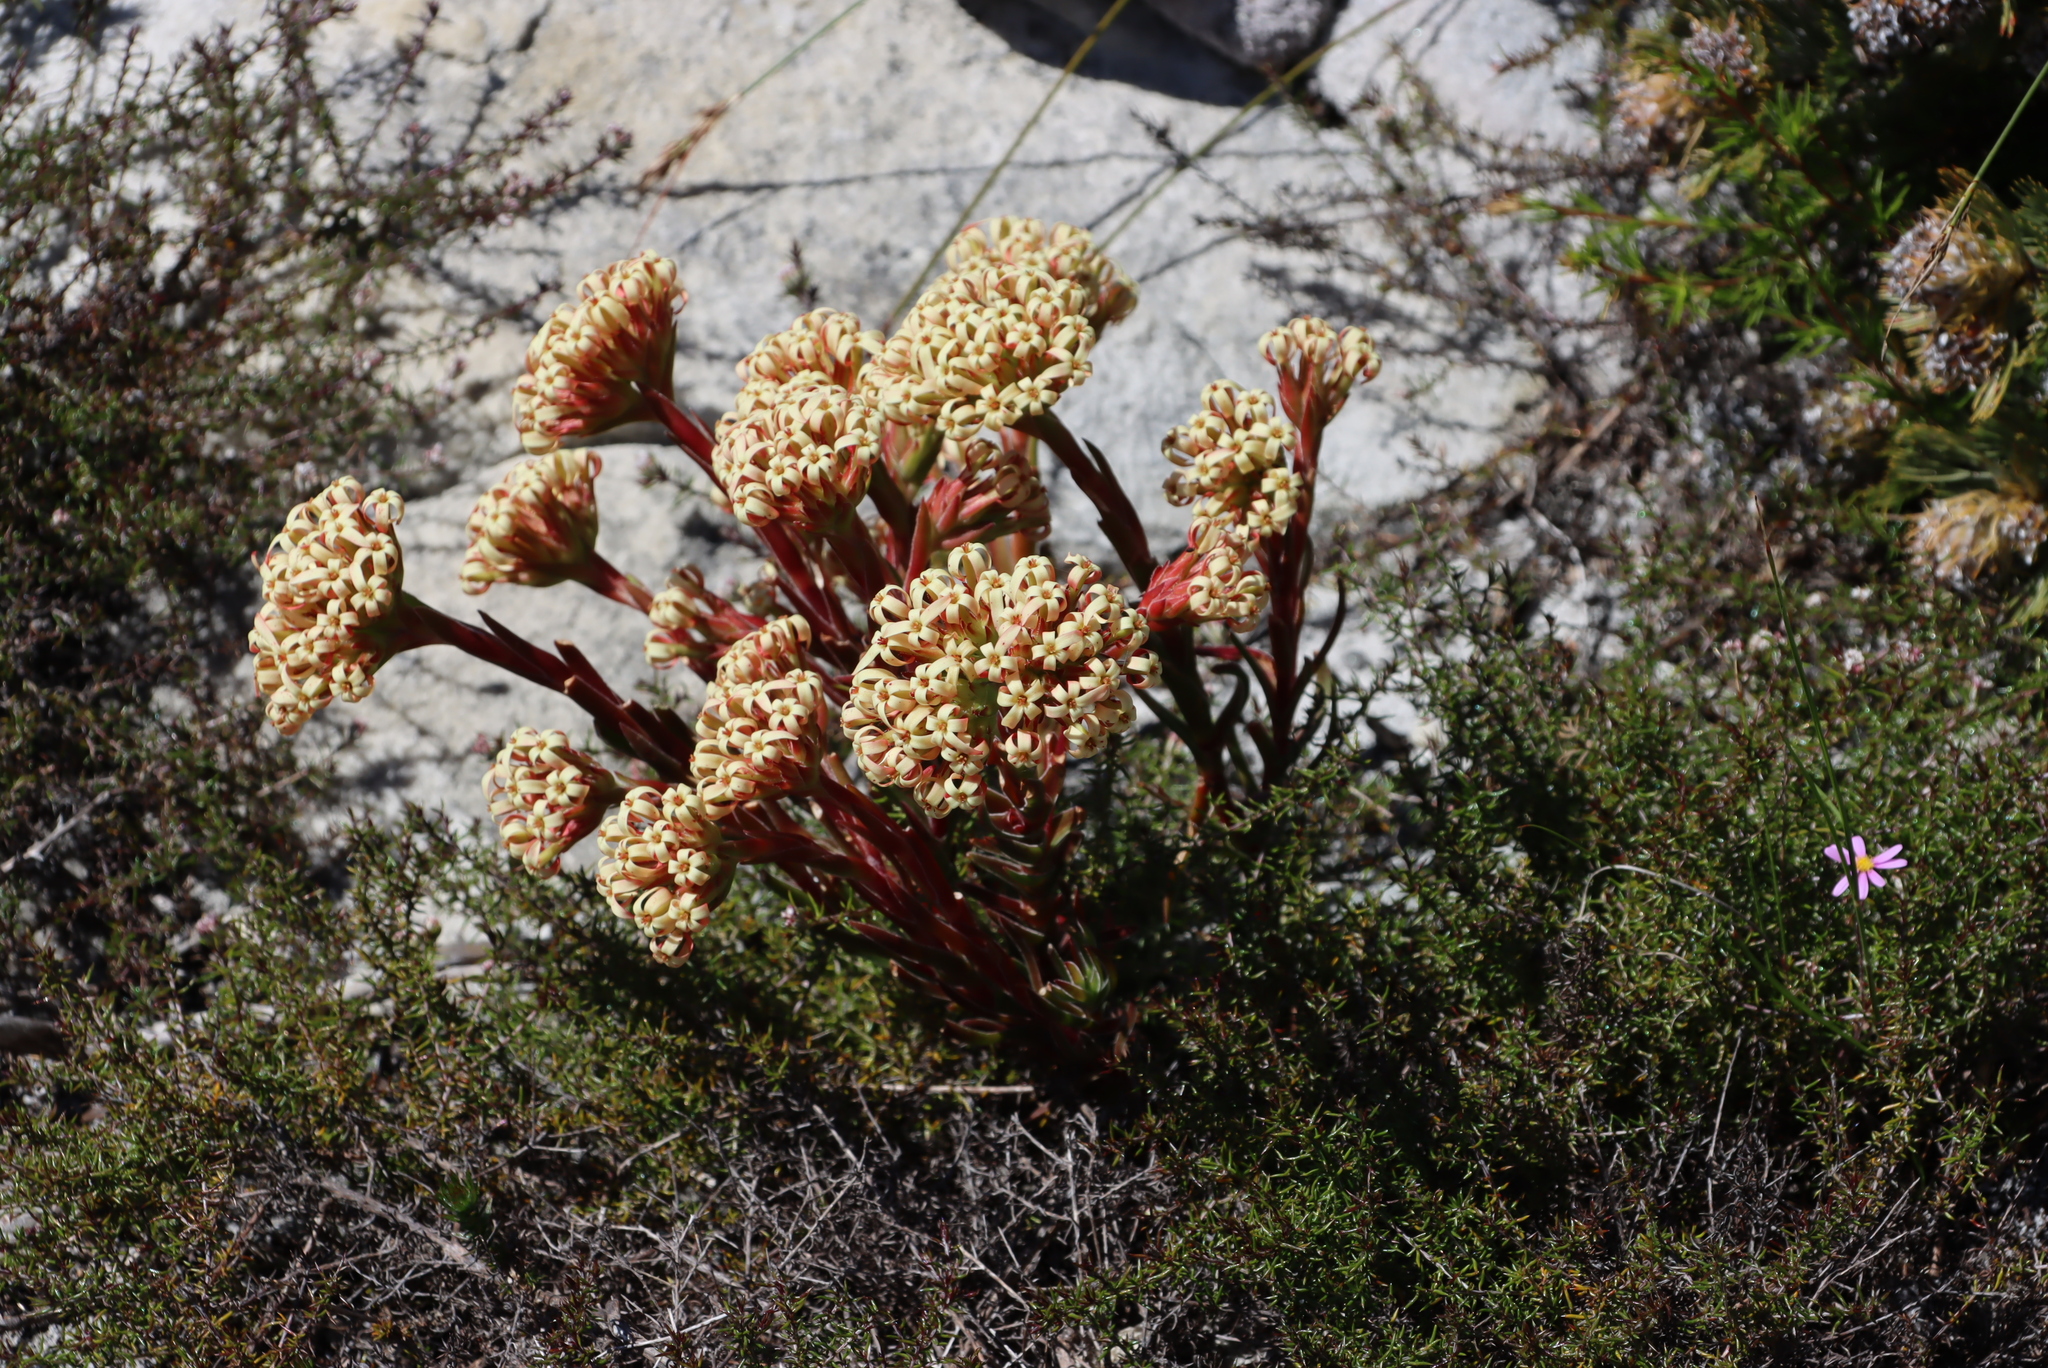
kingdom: Plantae
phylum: Tracheophyta
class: Magnoliopsida
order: Saxifragales
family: Crassulaceae
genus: Crassula
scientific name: Crassula fascicularis
